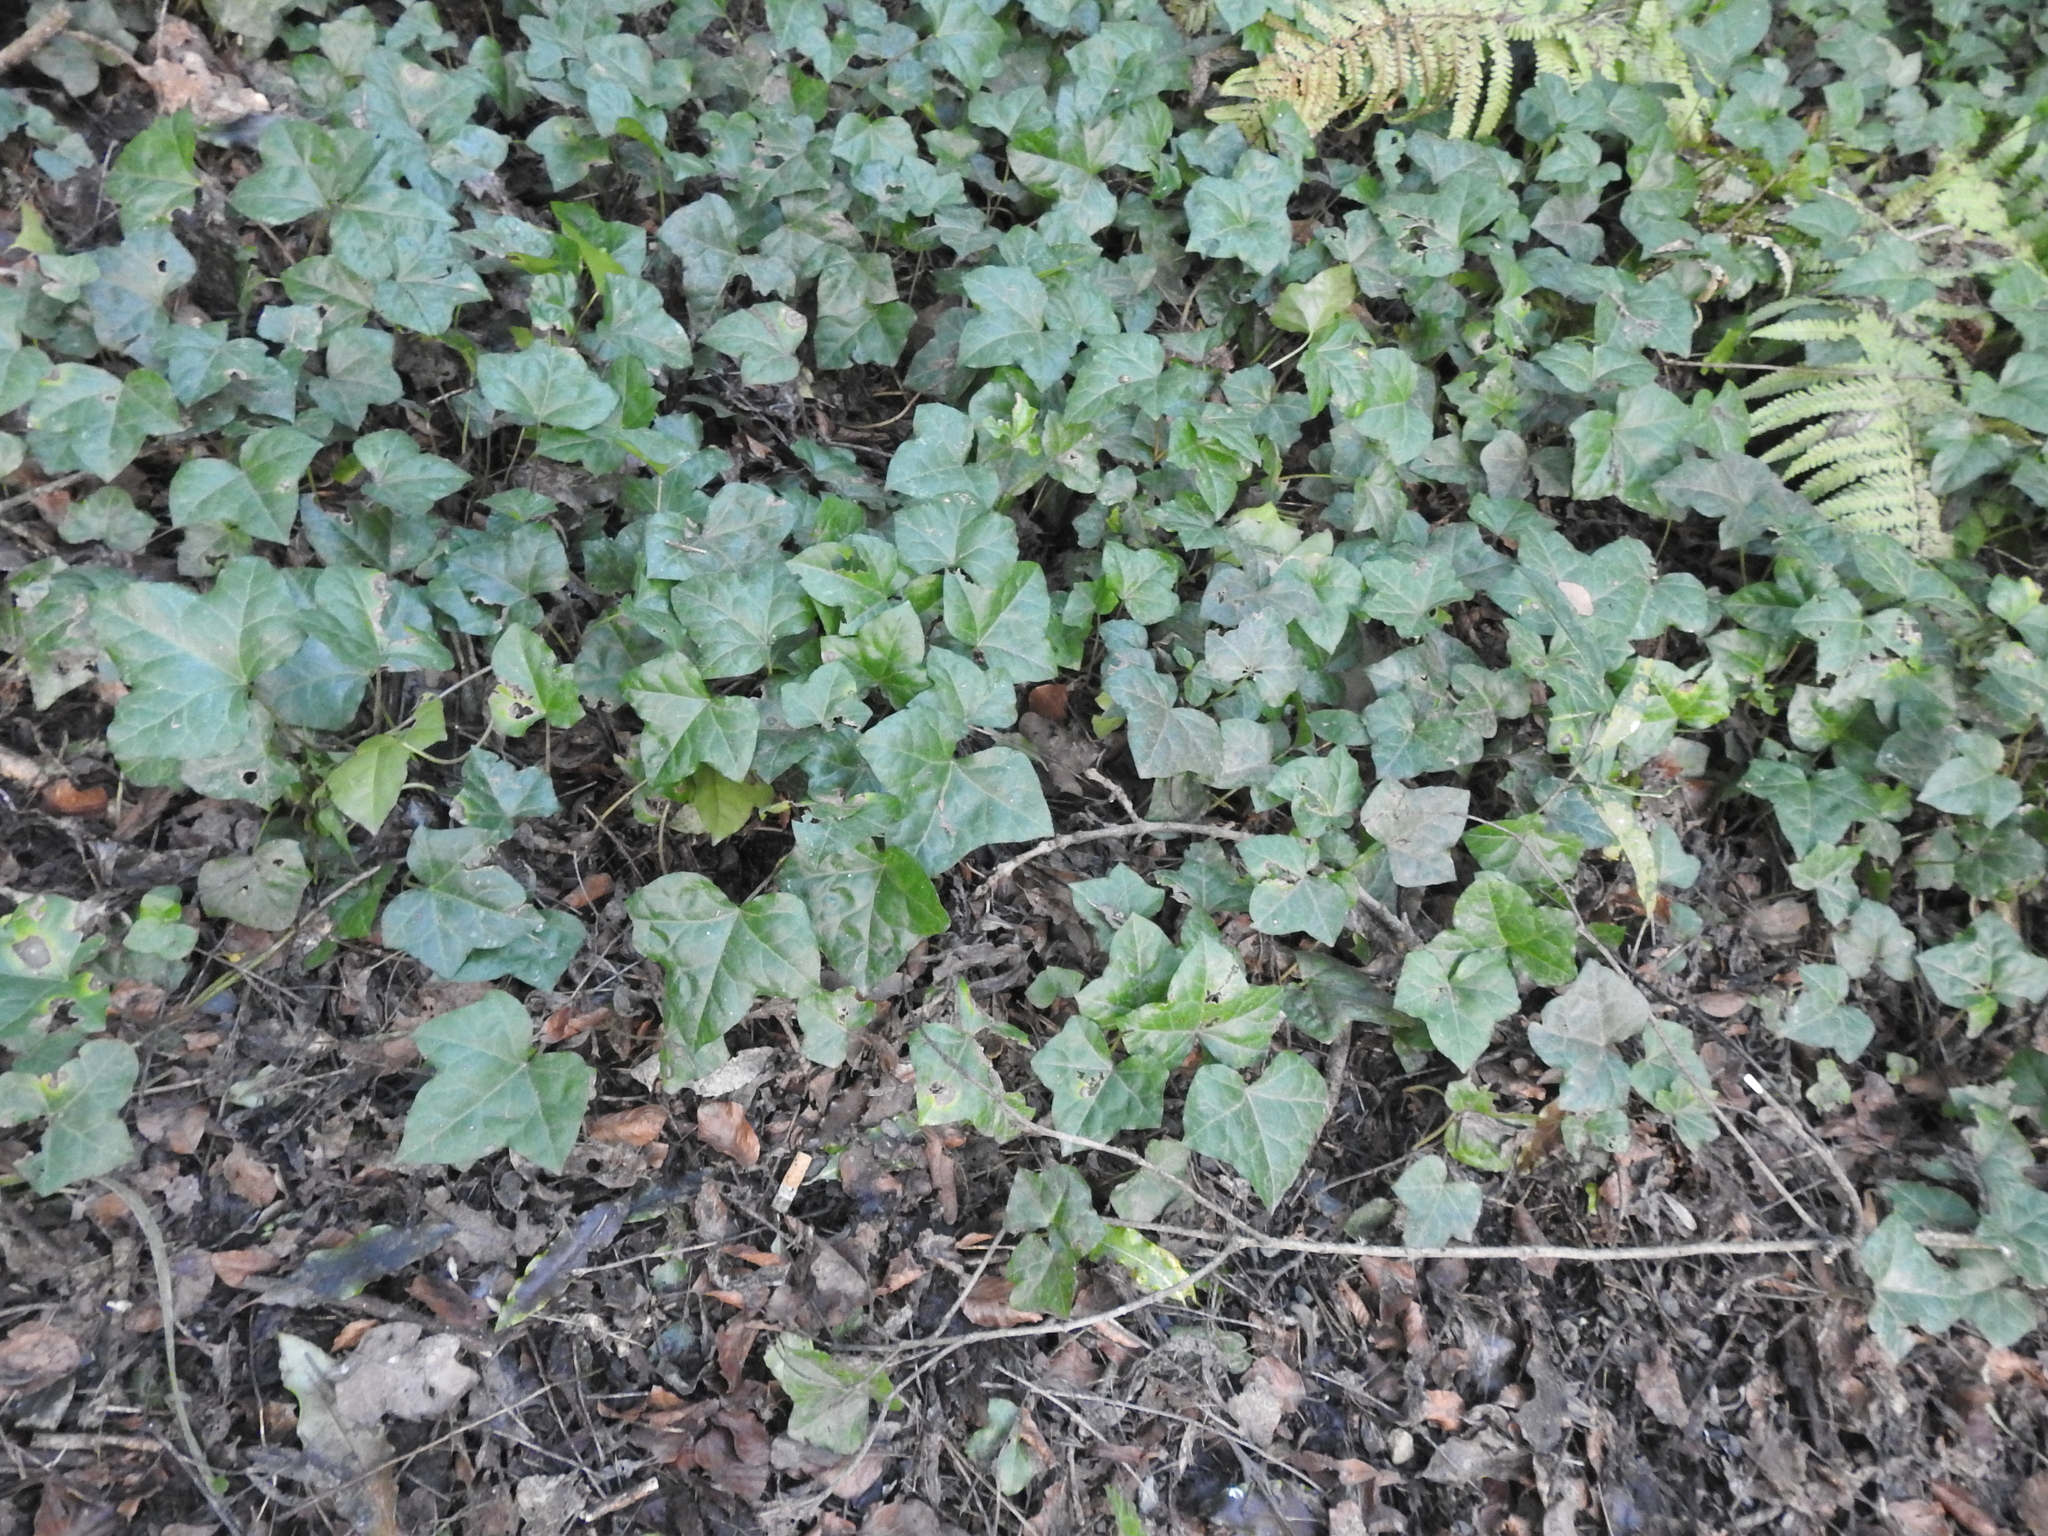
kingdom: Plantae
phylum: Tracheophyta
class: Magnoliopsida
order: Apiales
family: Araliaceae
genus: Hedera
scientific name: Hedera helix
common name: Ivy
